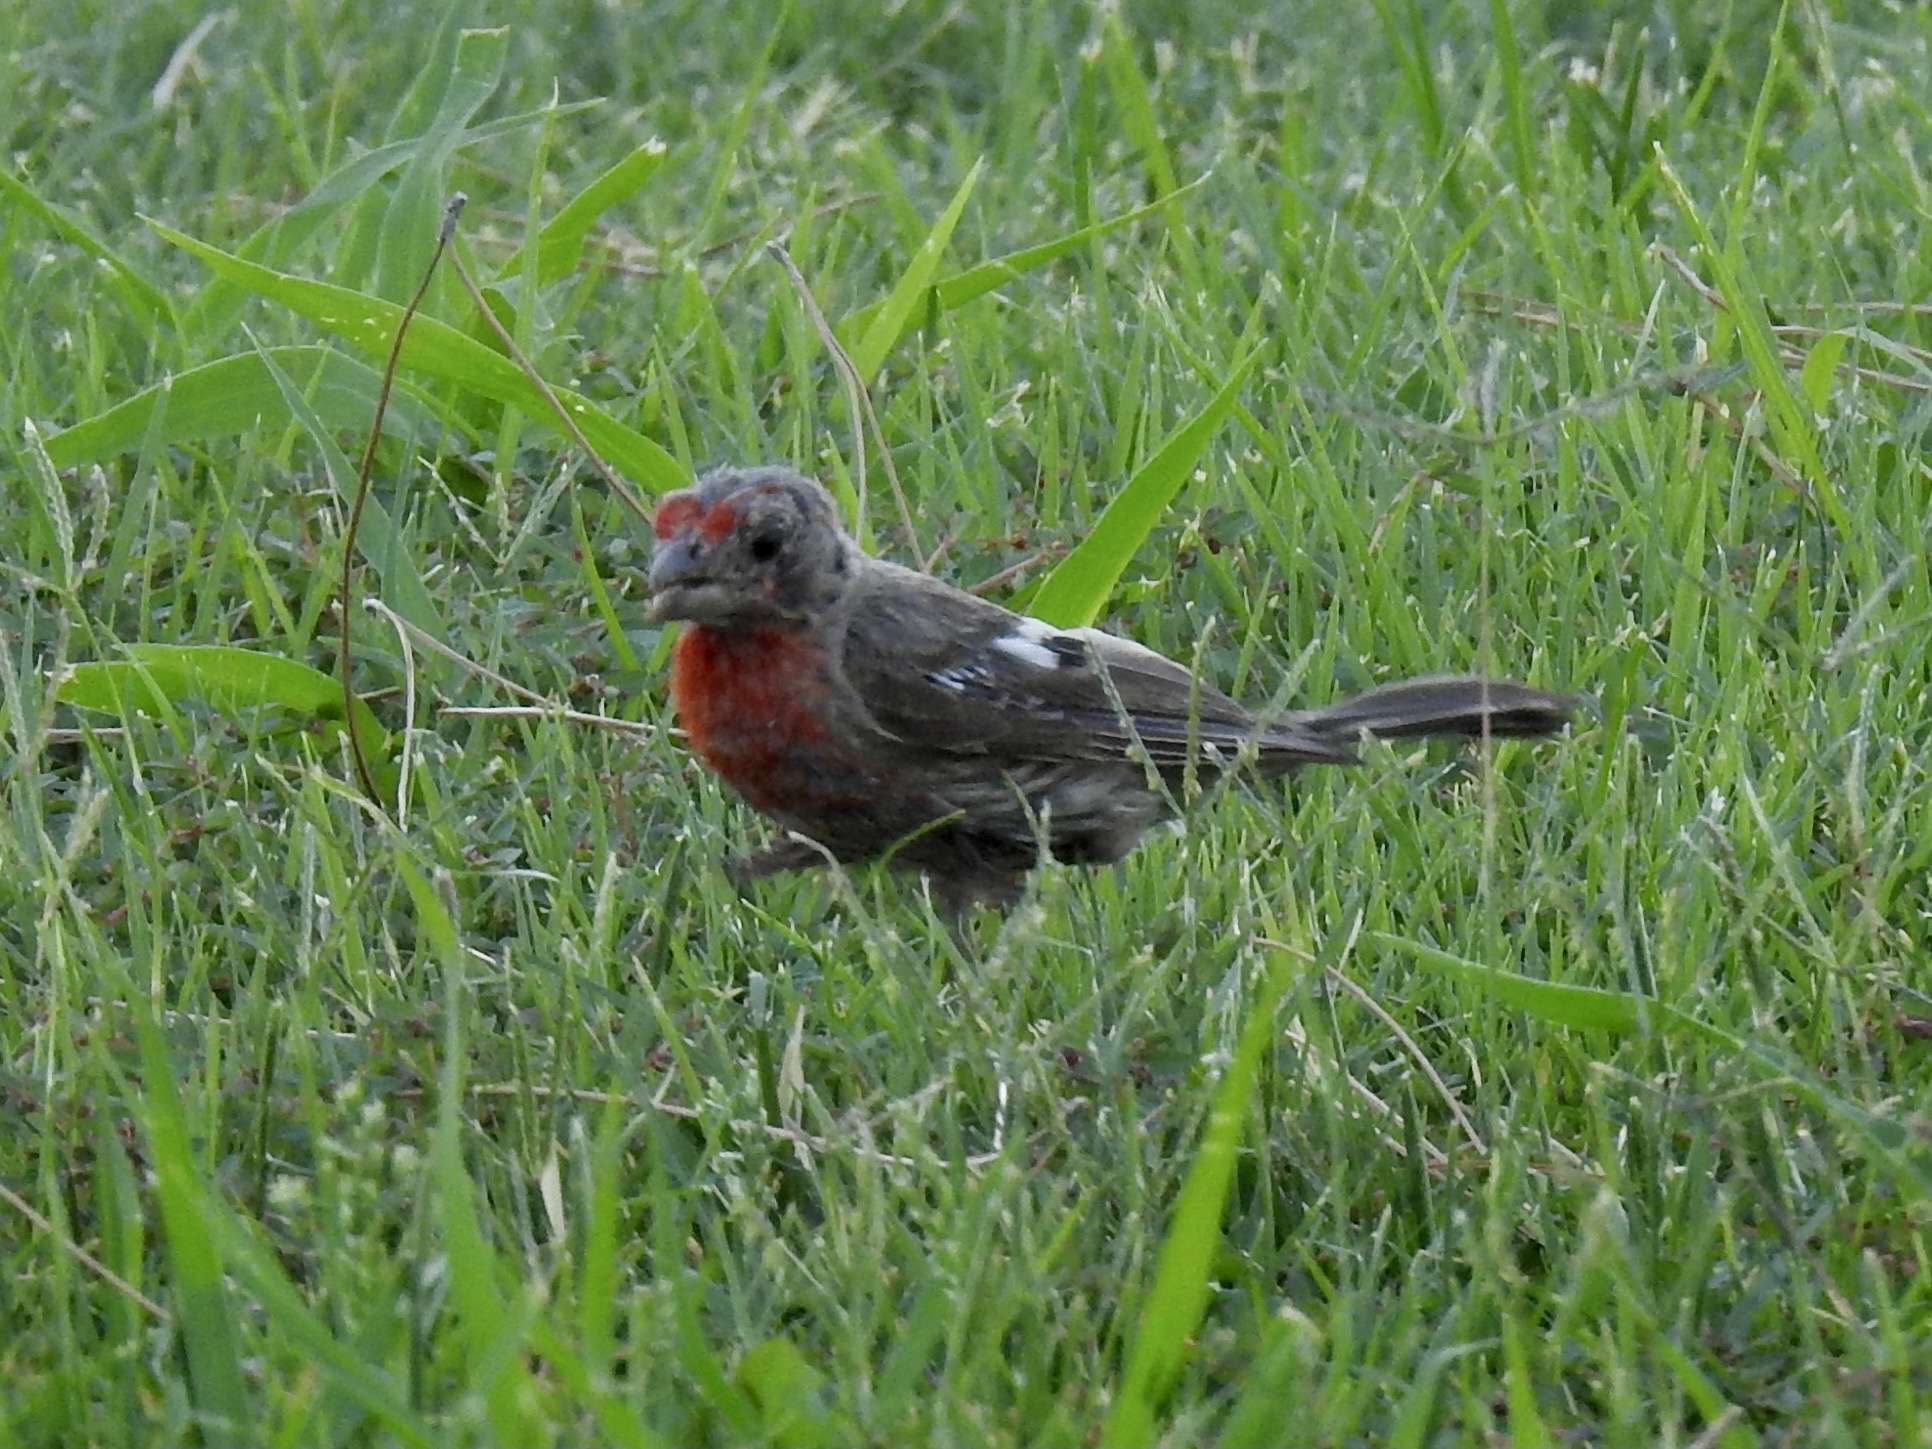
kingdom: Animalia
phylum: Chordata
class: Aves
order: Passeriformes
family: Fringillidae
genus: Haemorhous
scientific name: Haemorhous mexicanus
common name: House finch
